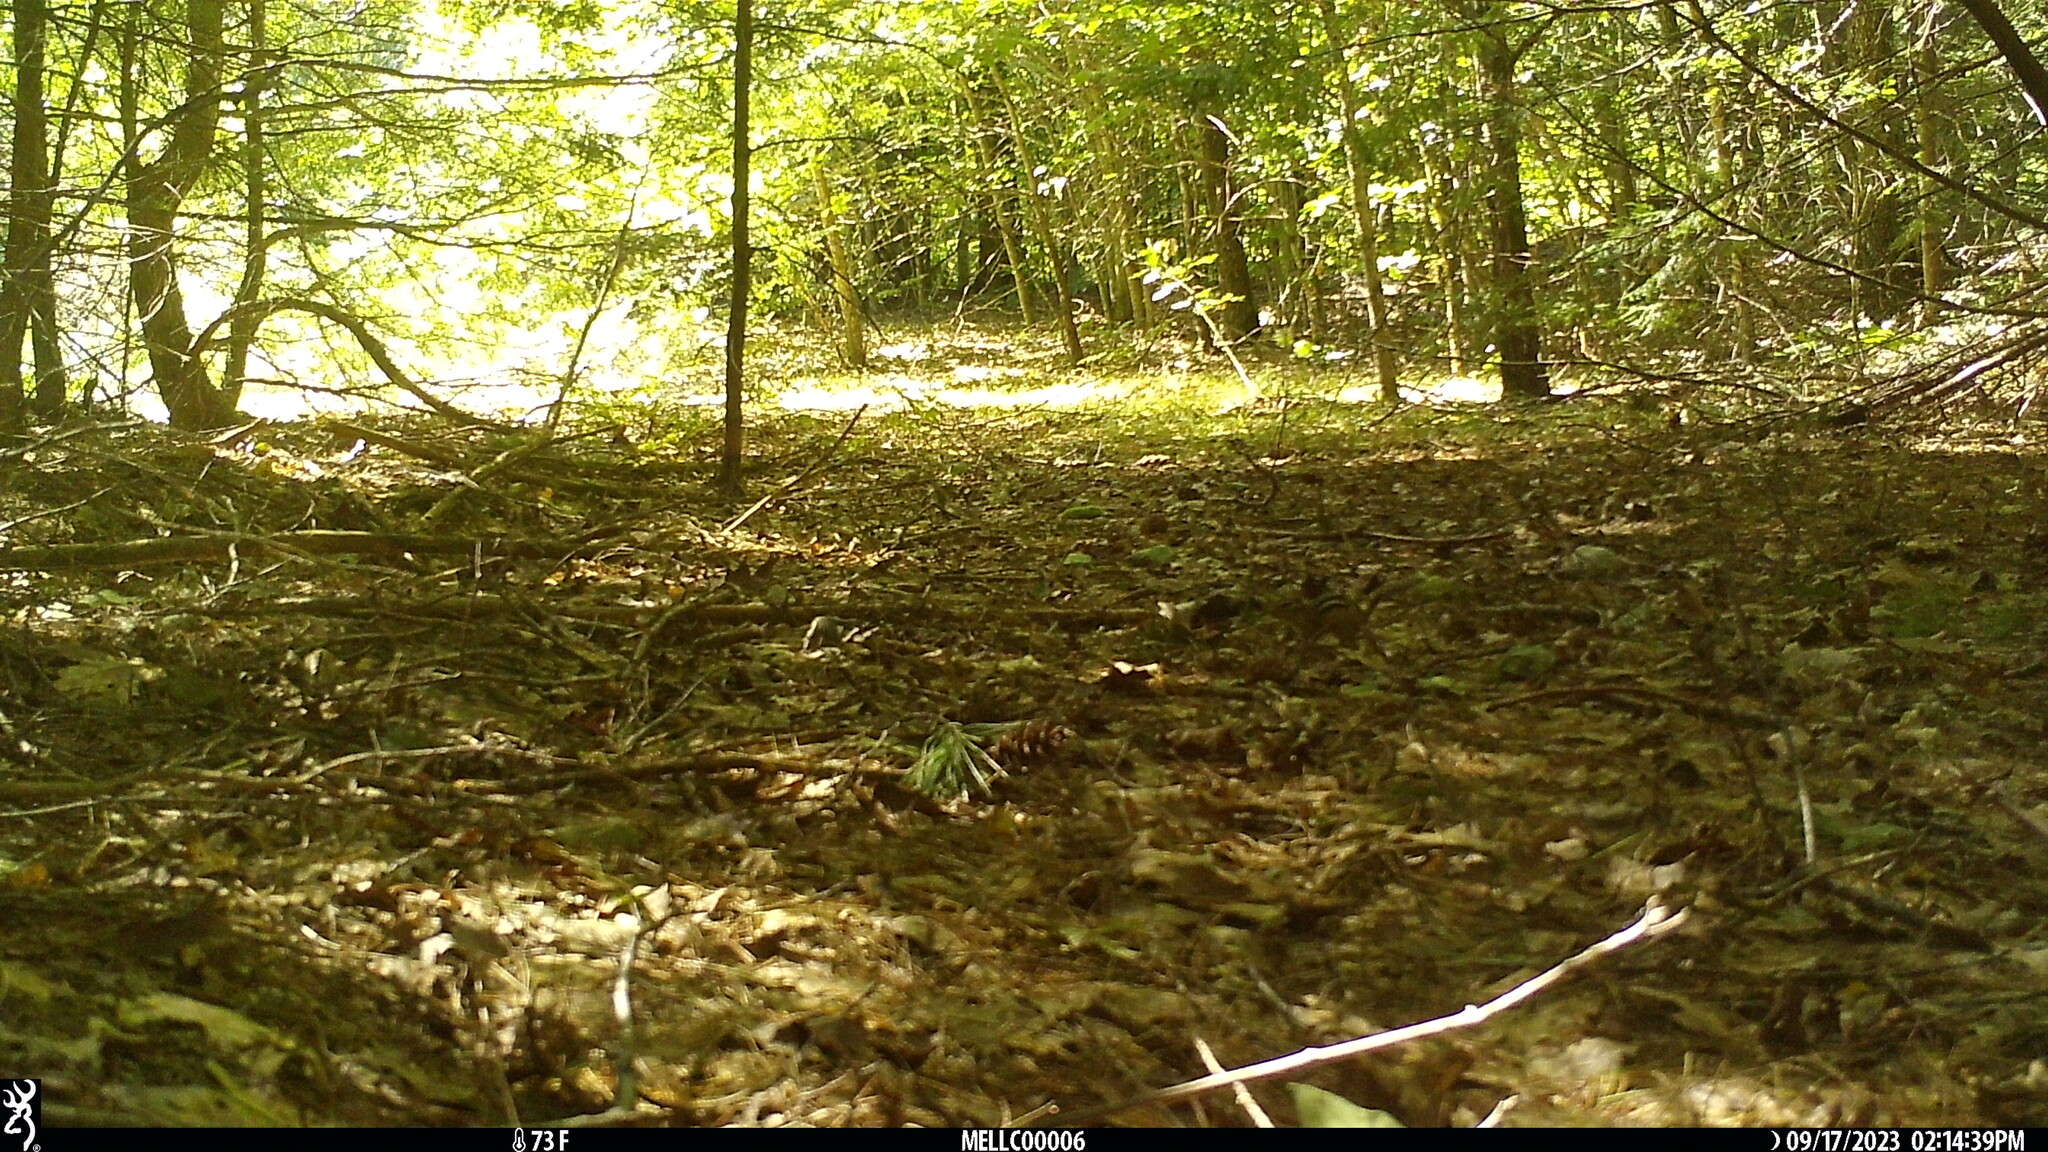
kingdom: Animalia
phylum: Chordata
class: Mammalia
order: Rodentia
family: Sciuridae
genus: Tamias
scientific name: Tamias striatus
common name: Eastern chipmunk
